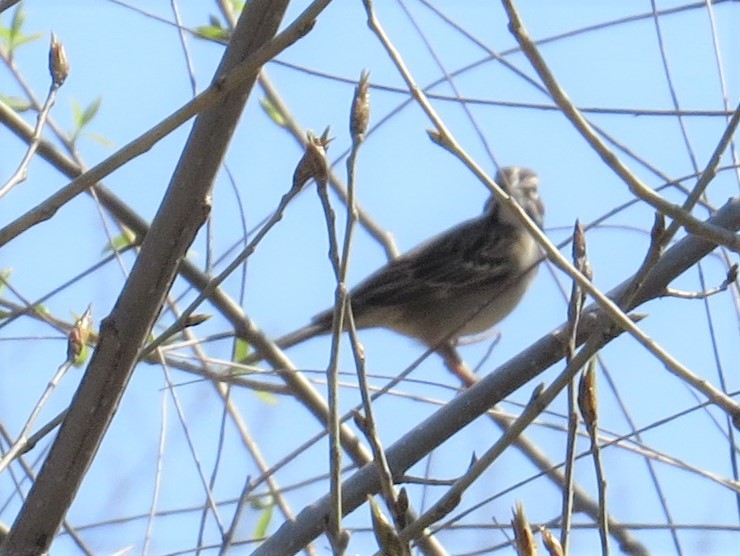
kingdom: Animalia
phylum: Chordata
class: Aves
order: Passeriformes
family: Passerellidae
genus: Chondestes
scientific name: Chondestes grammacus
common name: Lark sparrow
